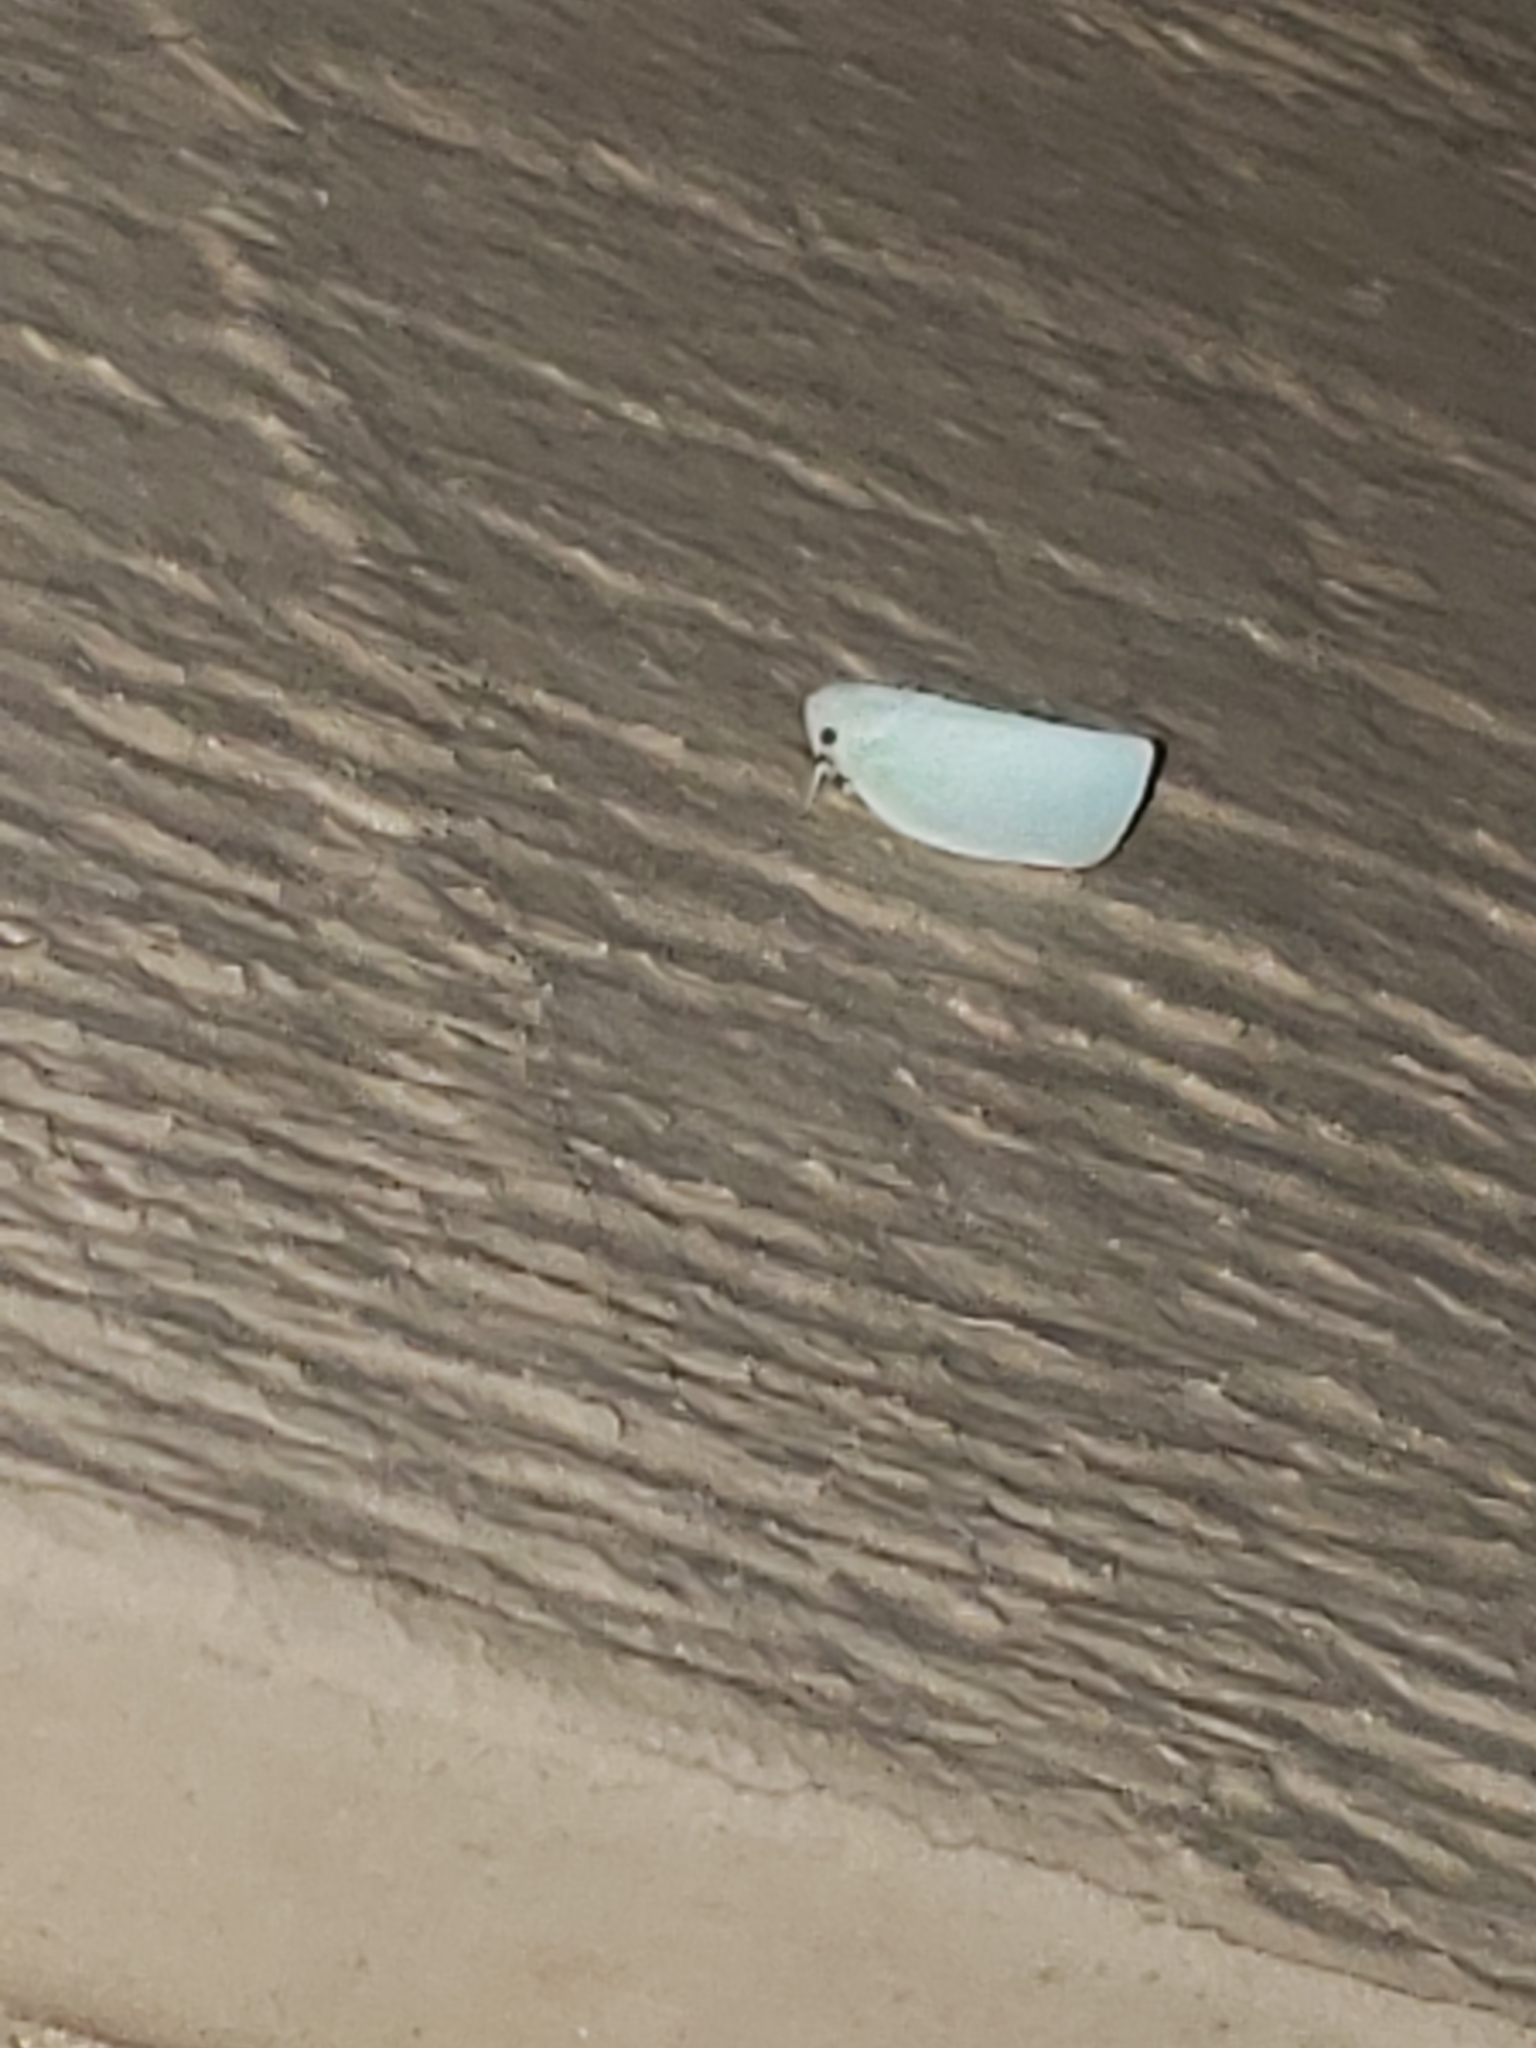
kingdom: Animalia
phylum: Arthropoda
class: Insecta
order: Hemiptera
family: Flatidae
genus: Flatormenis
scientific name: Flatormenis proxima
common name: Northern flatid planthopper
